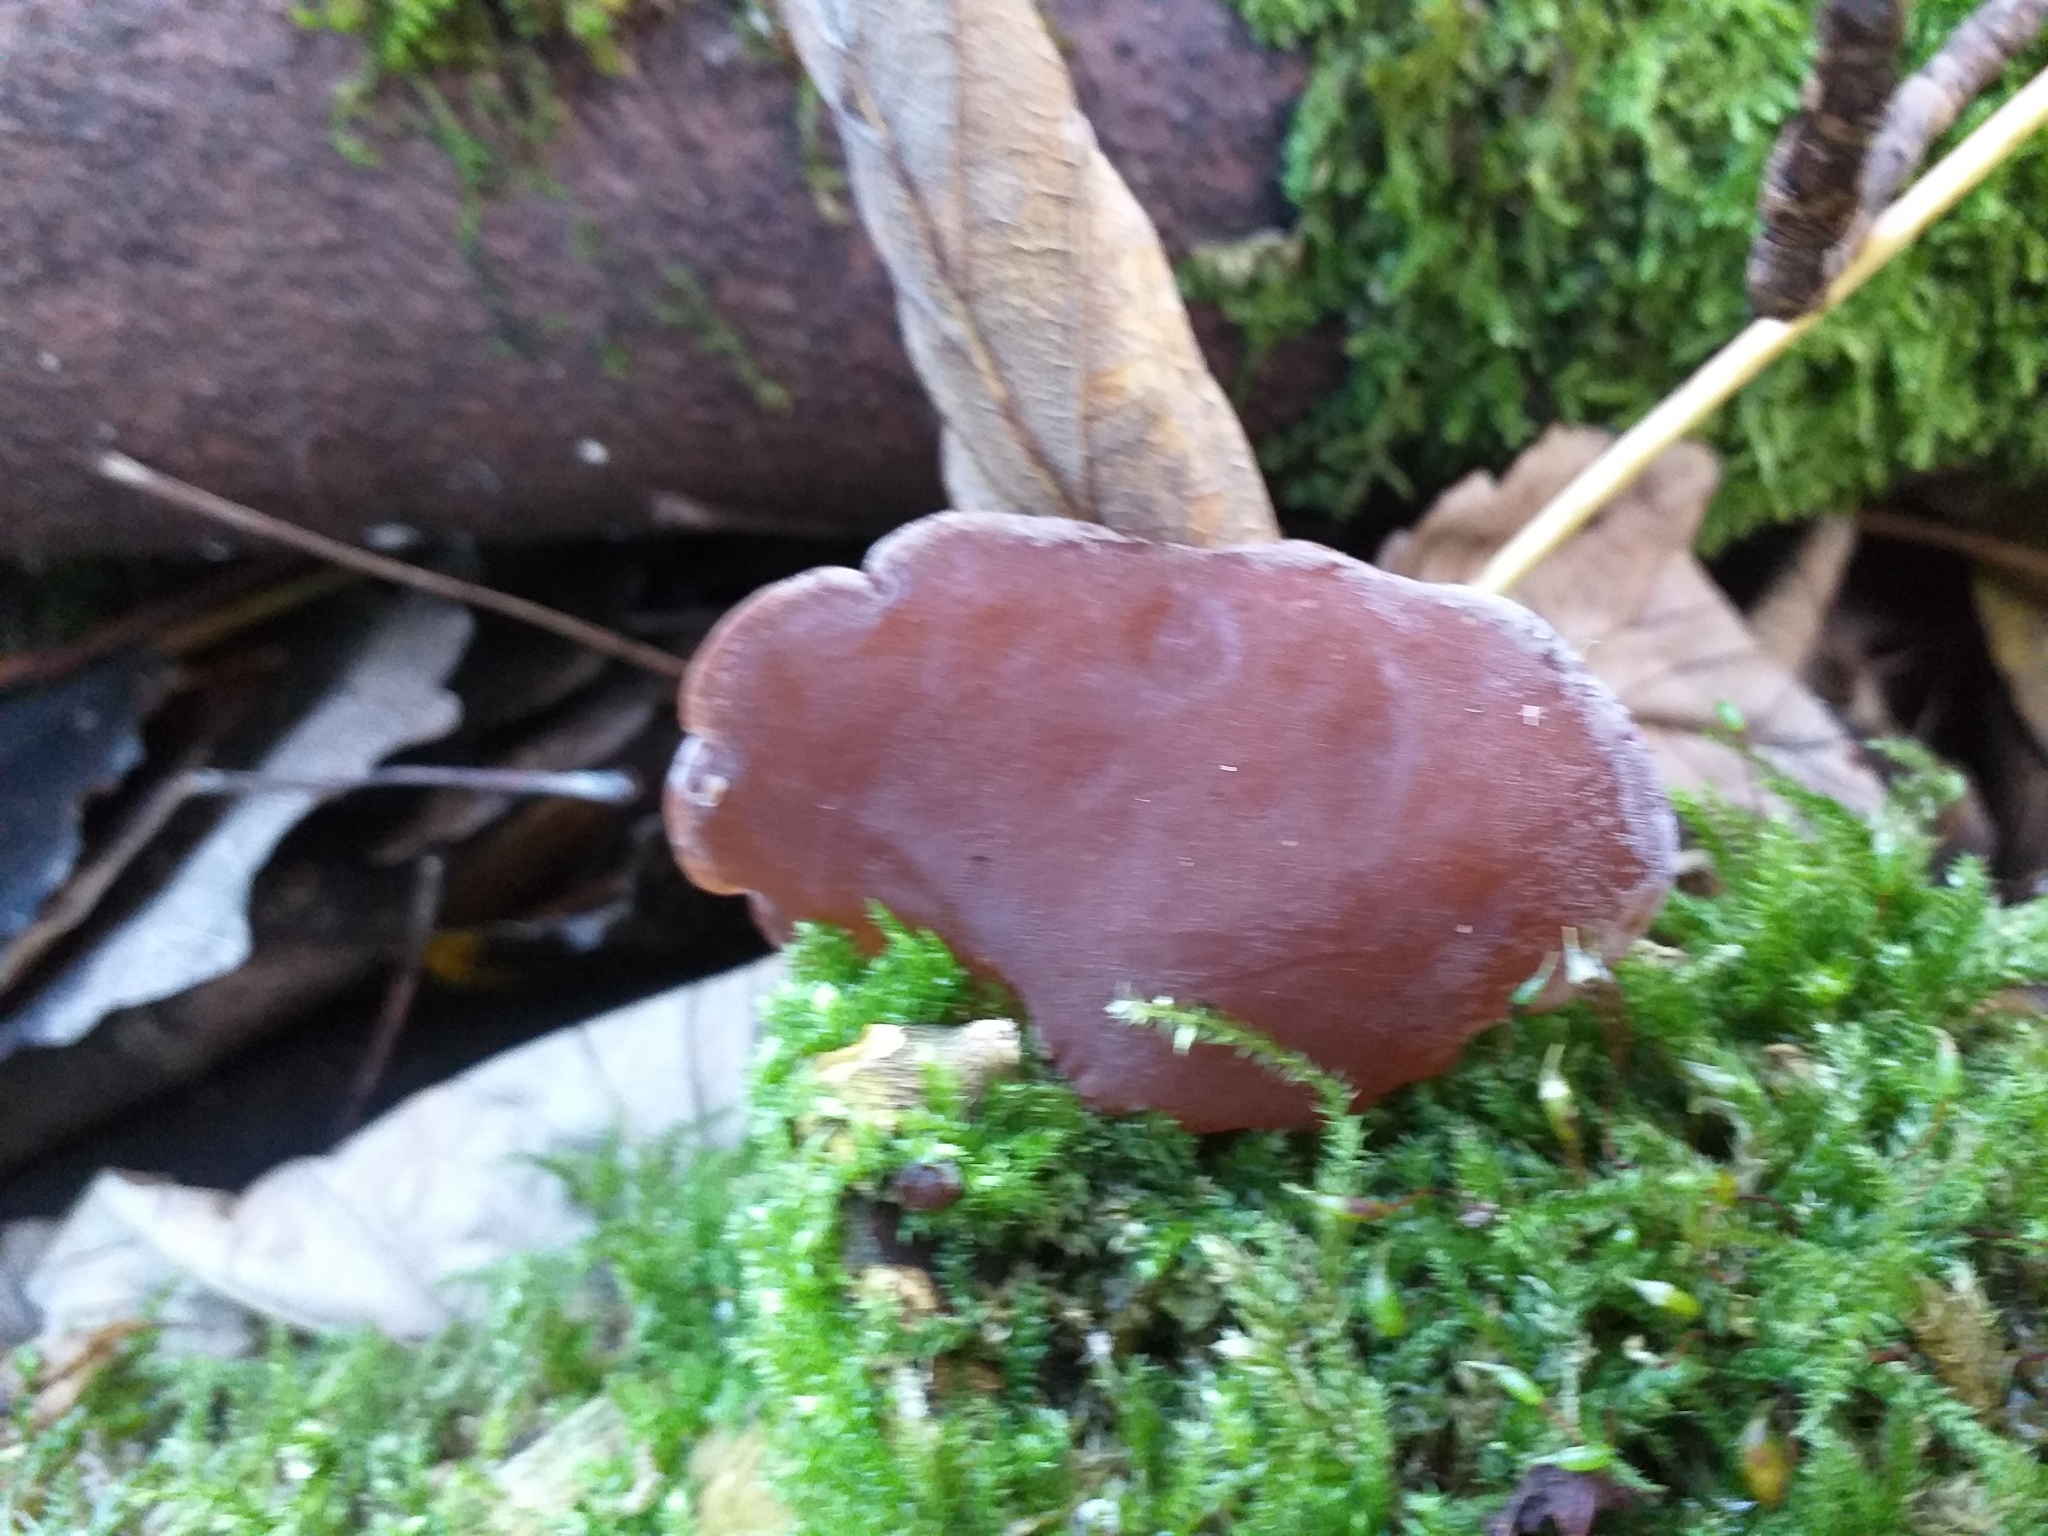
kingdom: Fungi
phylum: Basidiomycota
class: Agaricomycetes
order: Auriculariales
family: Auriculariaceae
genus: Auricularia
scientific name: Auricularia auricula-judae
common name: Jelly ear
